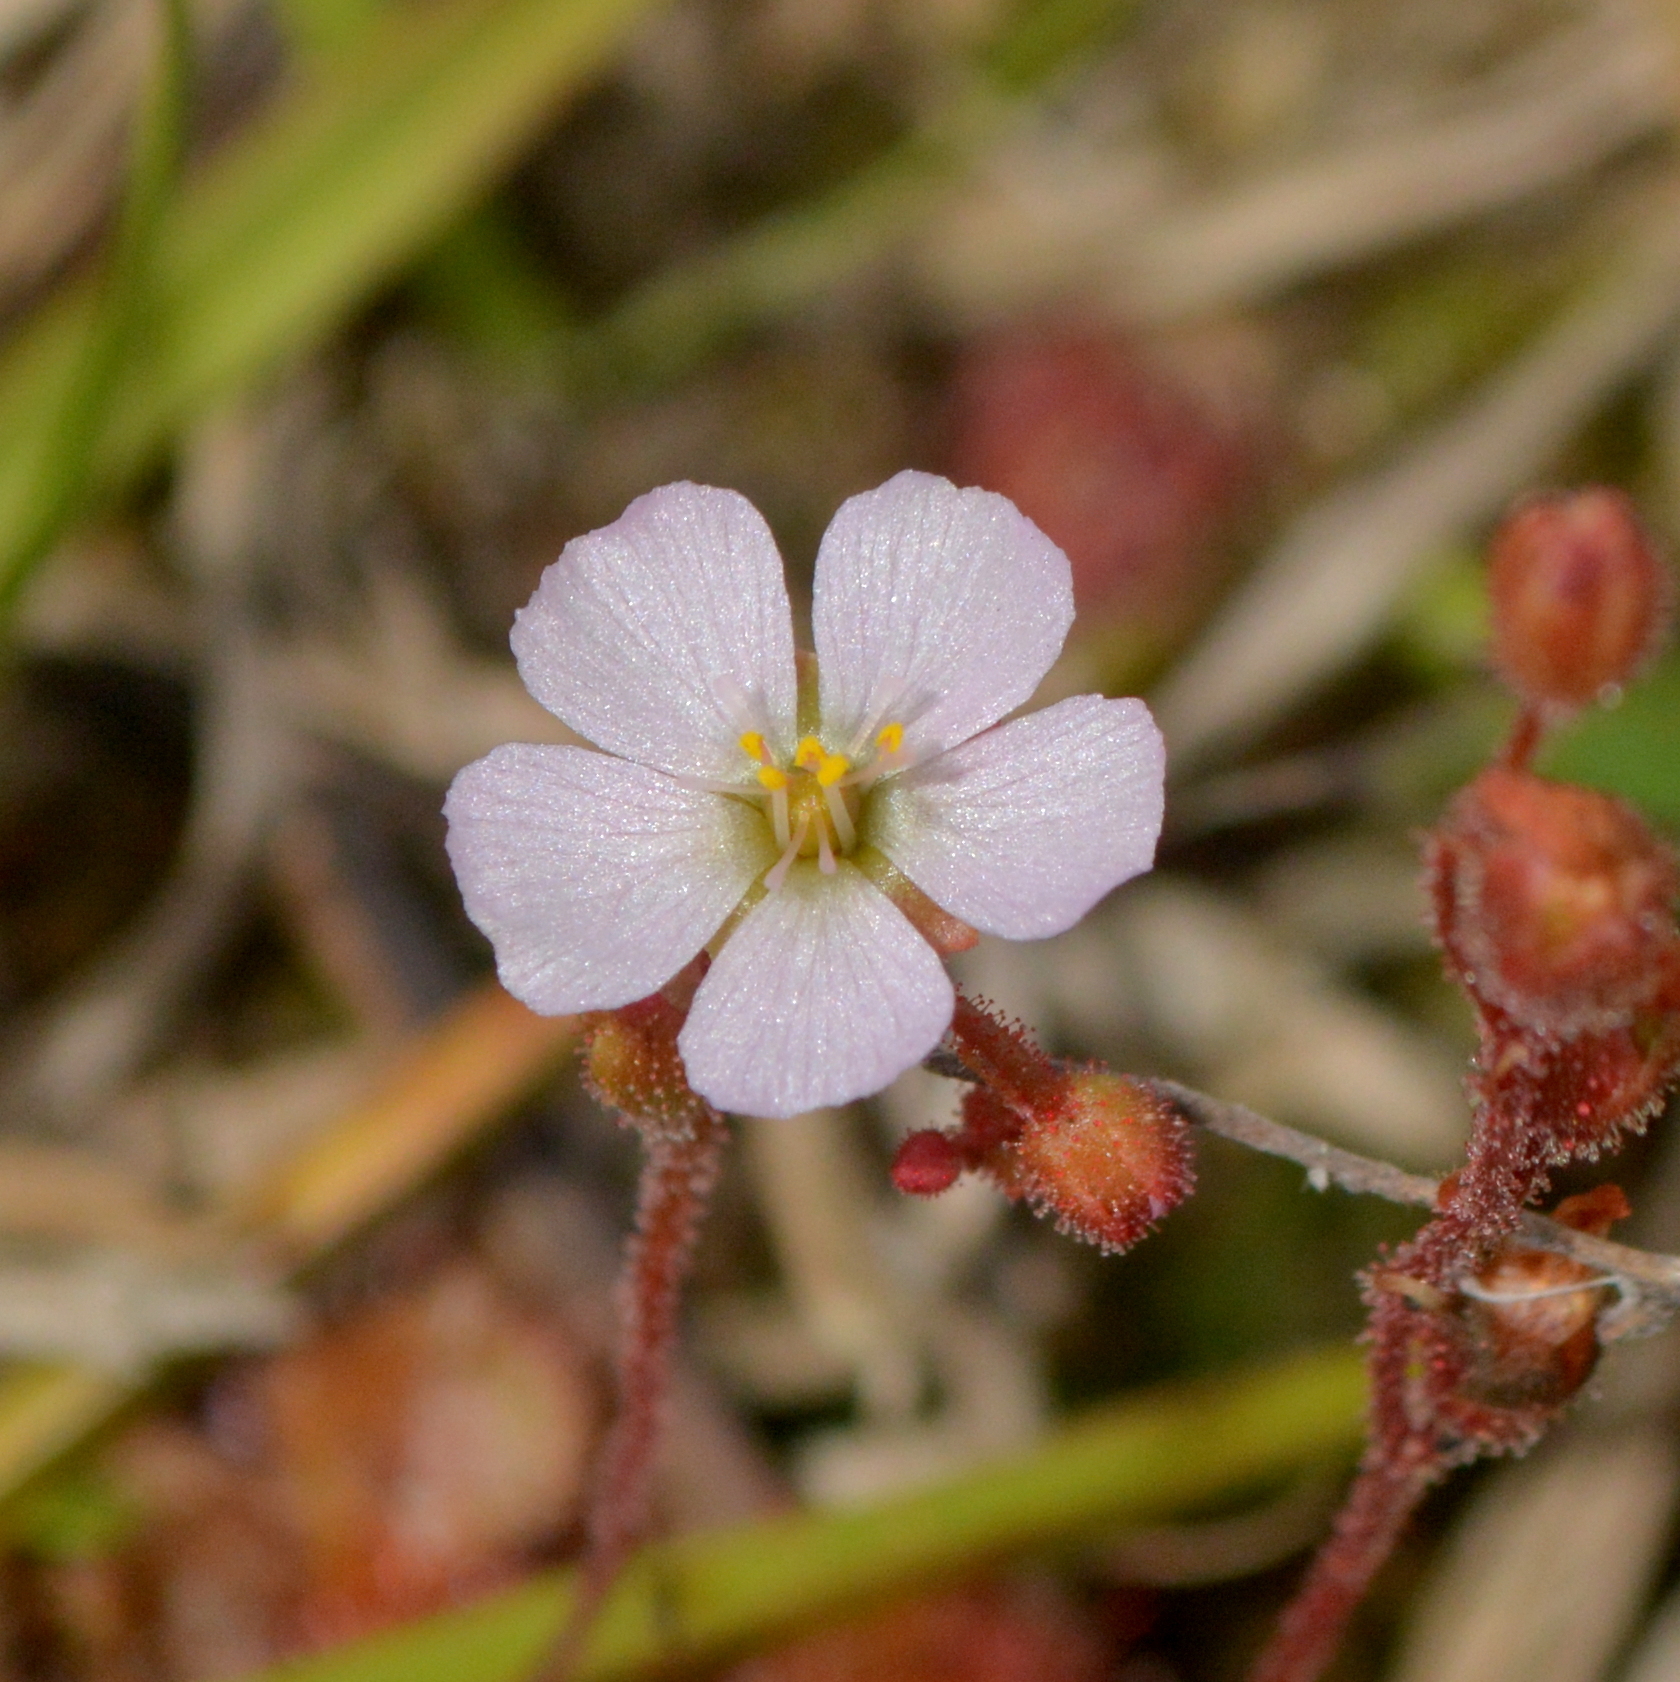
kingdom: Plantae
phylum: Tracheophyta
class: Magnoliopsida
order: Caryophyllales
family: Droseraceae
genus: Drosera
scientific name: Drosera brevifolia
